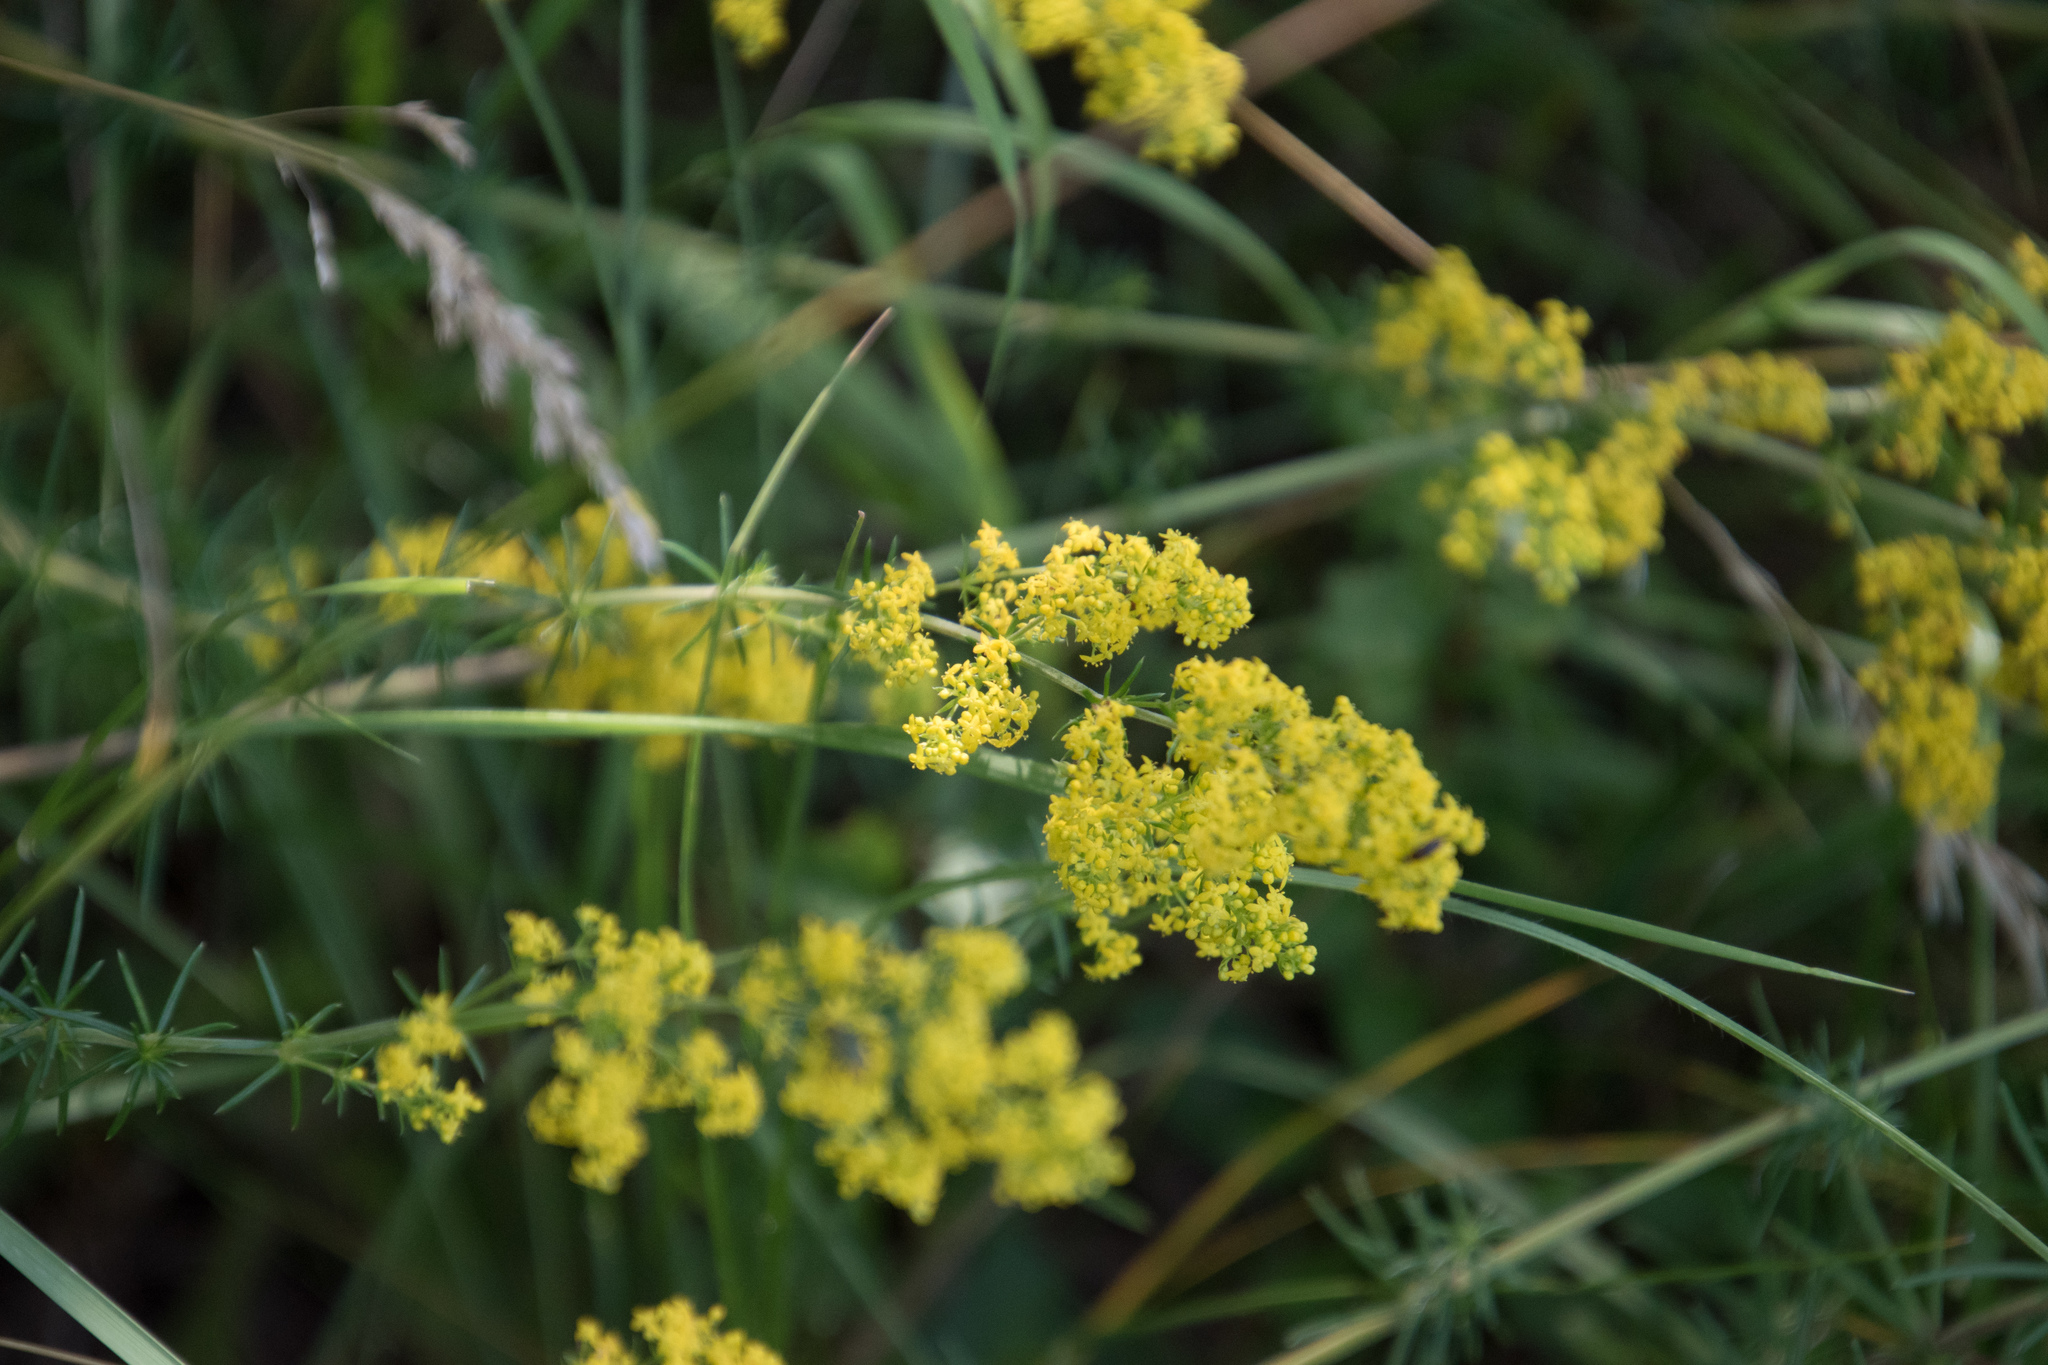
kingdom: Plantae
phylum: Tracheophyta
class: Magnoliopsida
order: Gentianales
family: Rubiaceae
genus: Galium
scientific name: Galium verum
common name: Lady's bedstraw
